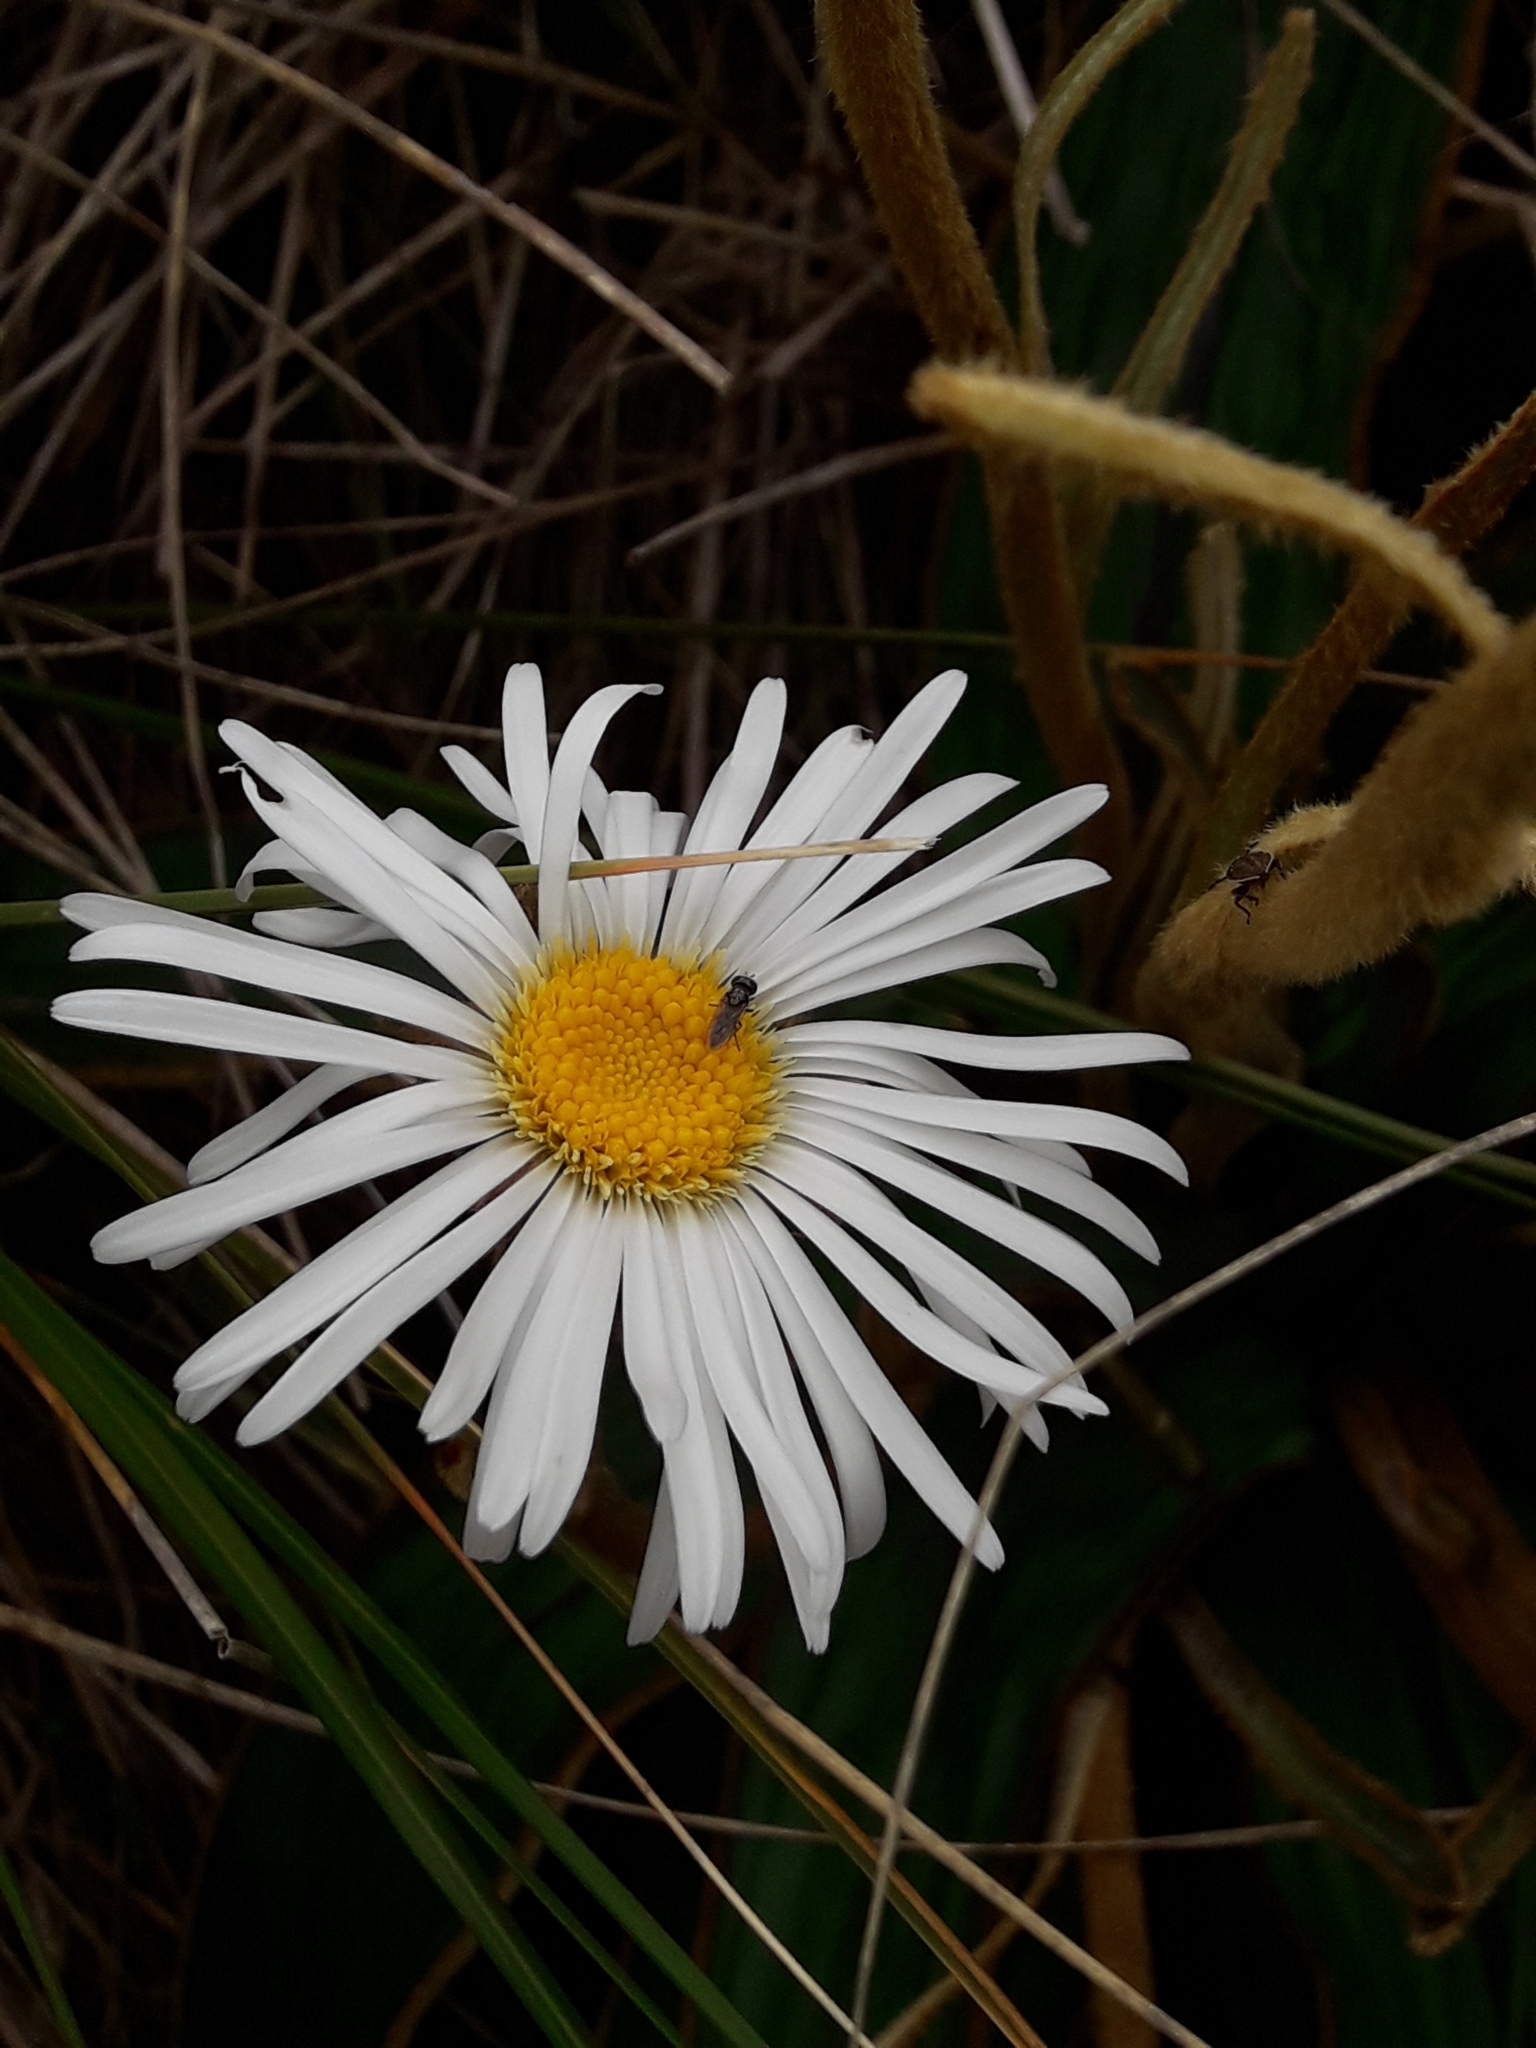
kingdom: Plantae
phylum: Tracheophyta
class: Magnoliopsida
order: Asterales
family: Asteraceae
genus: Celmisia
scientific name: Celmisia traversii
